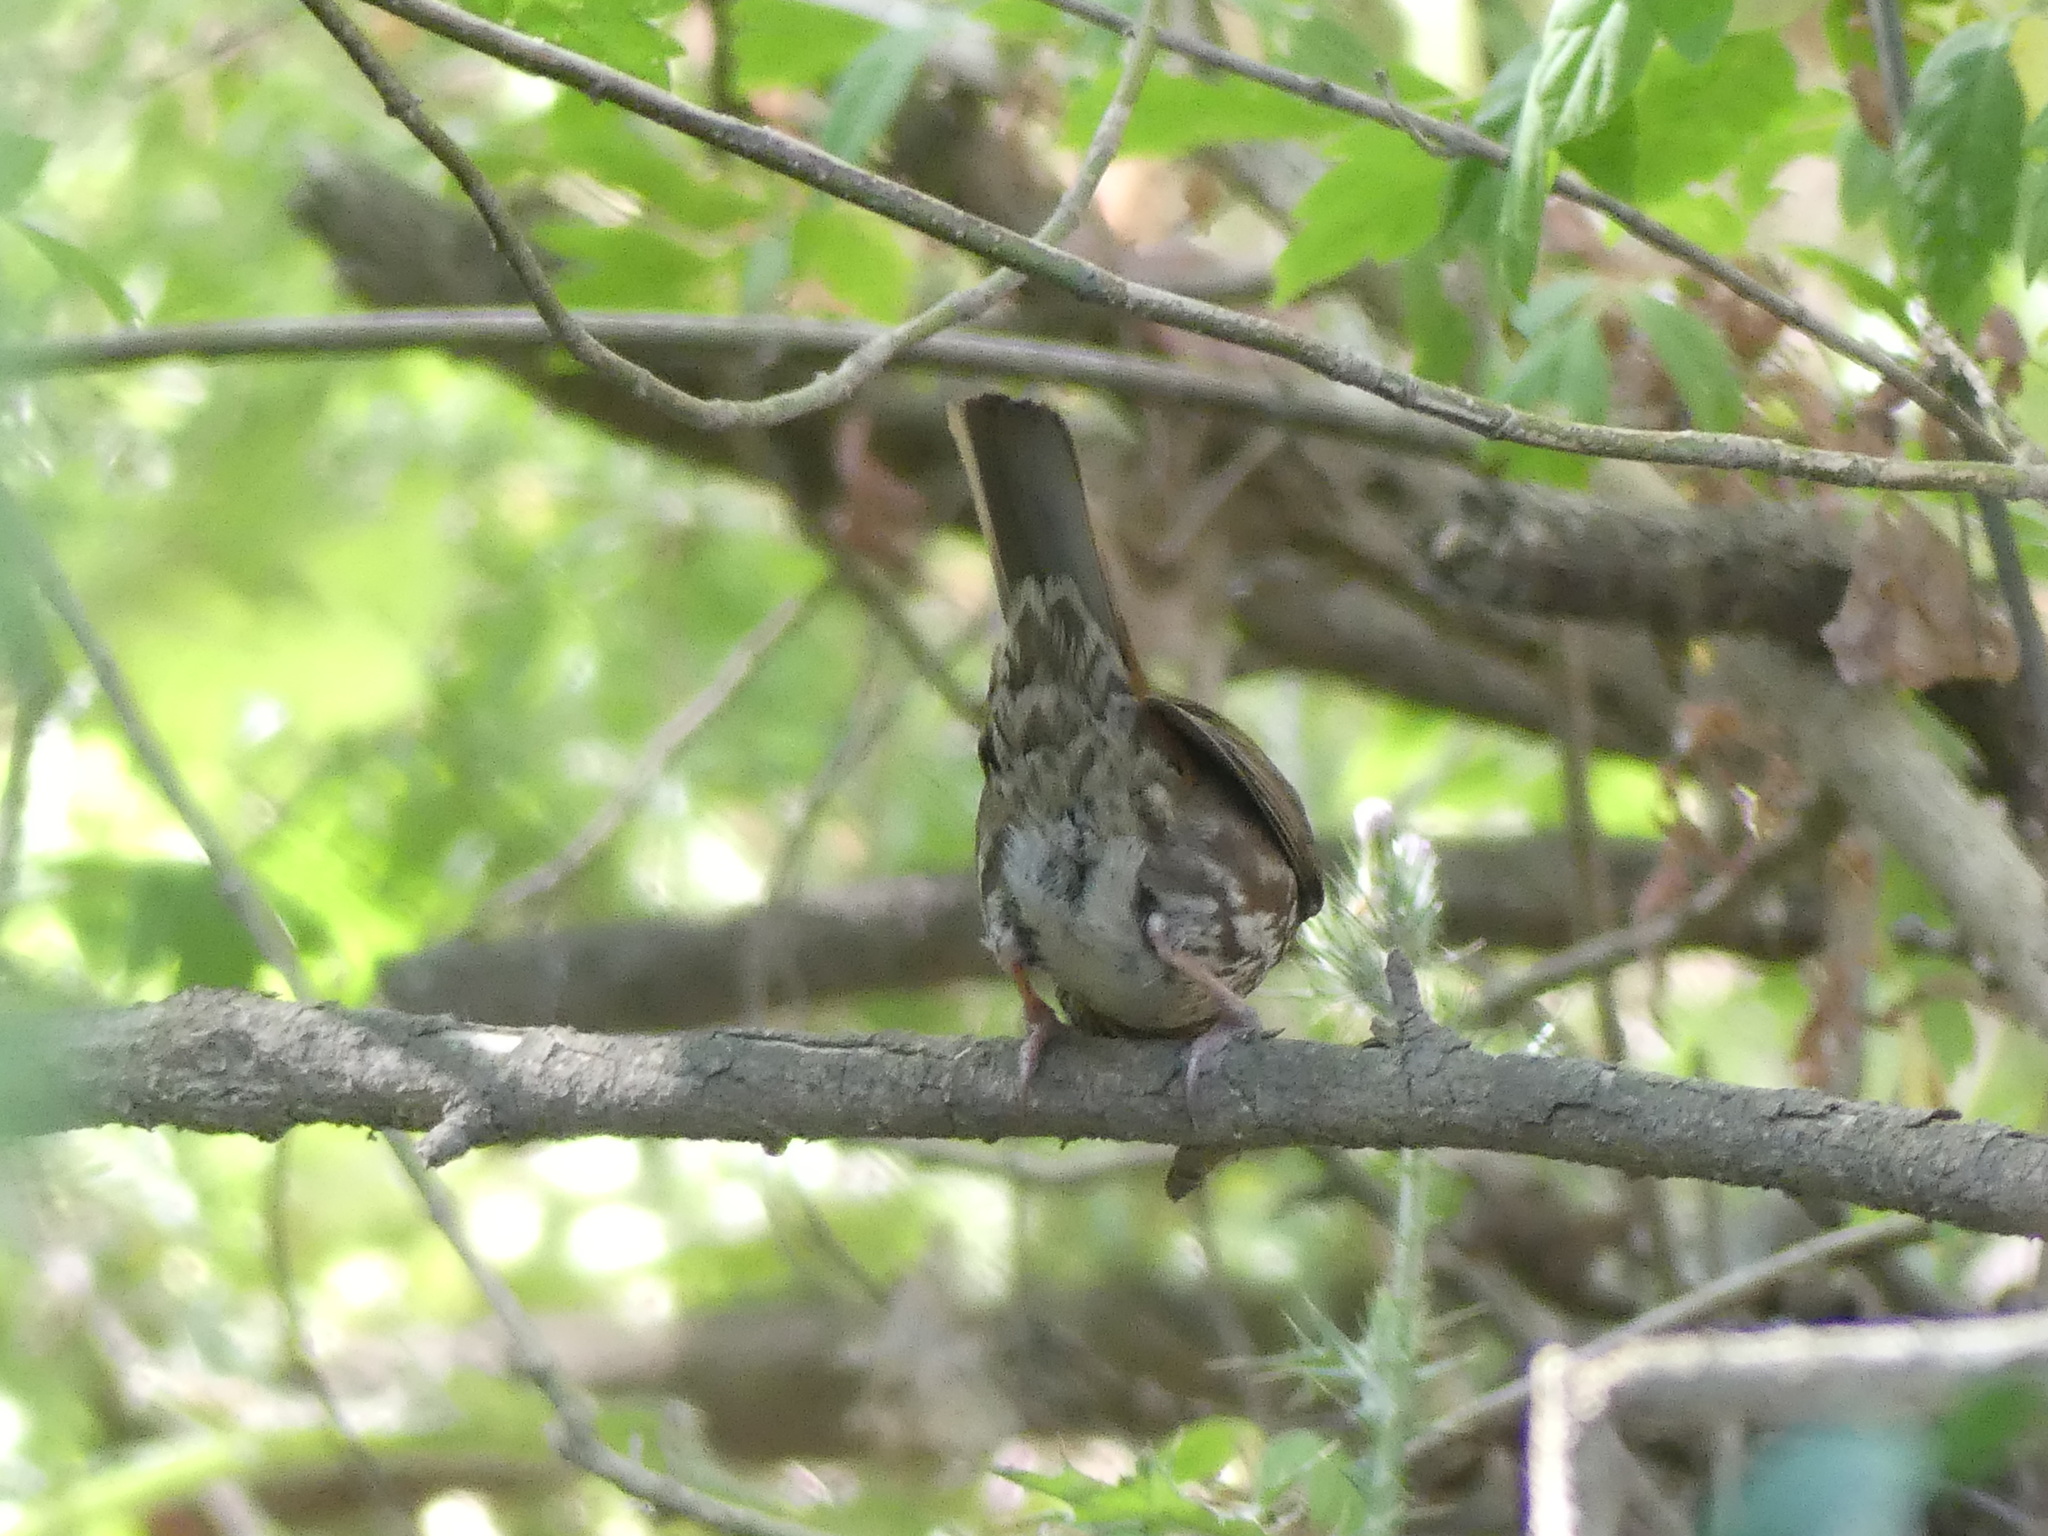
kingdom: Animalia
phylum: Chordata
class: Aves
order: Passeriformes
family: Passerellidae
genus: Passerella
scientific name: Passerella iliaca
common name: Fox sparrow
